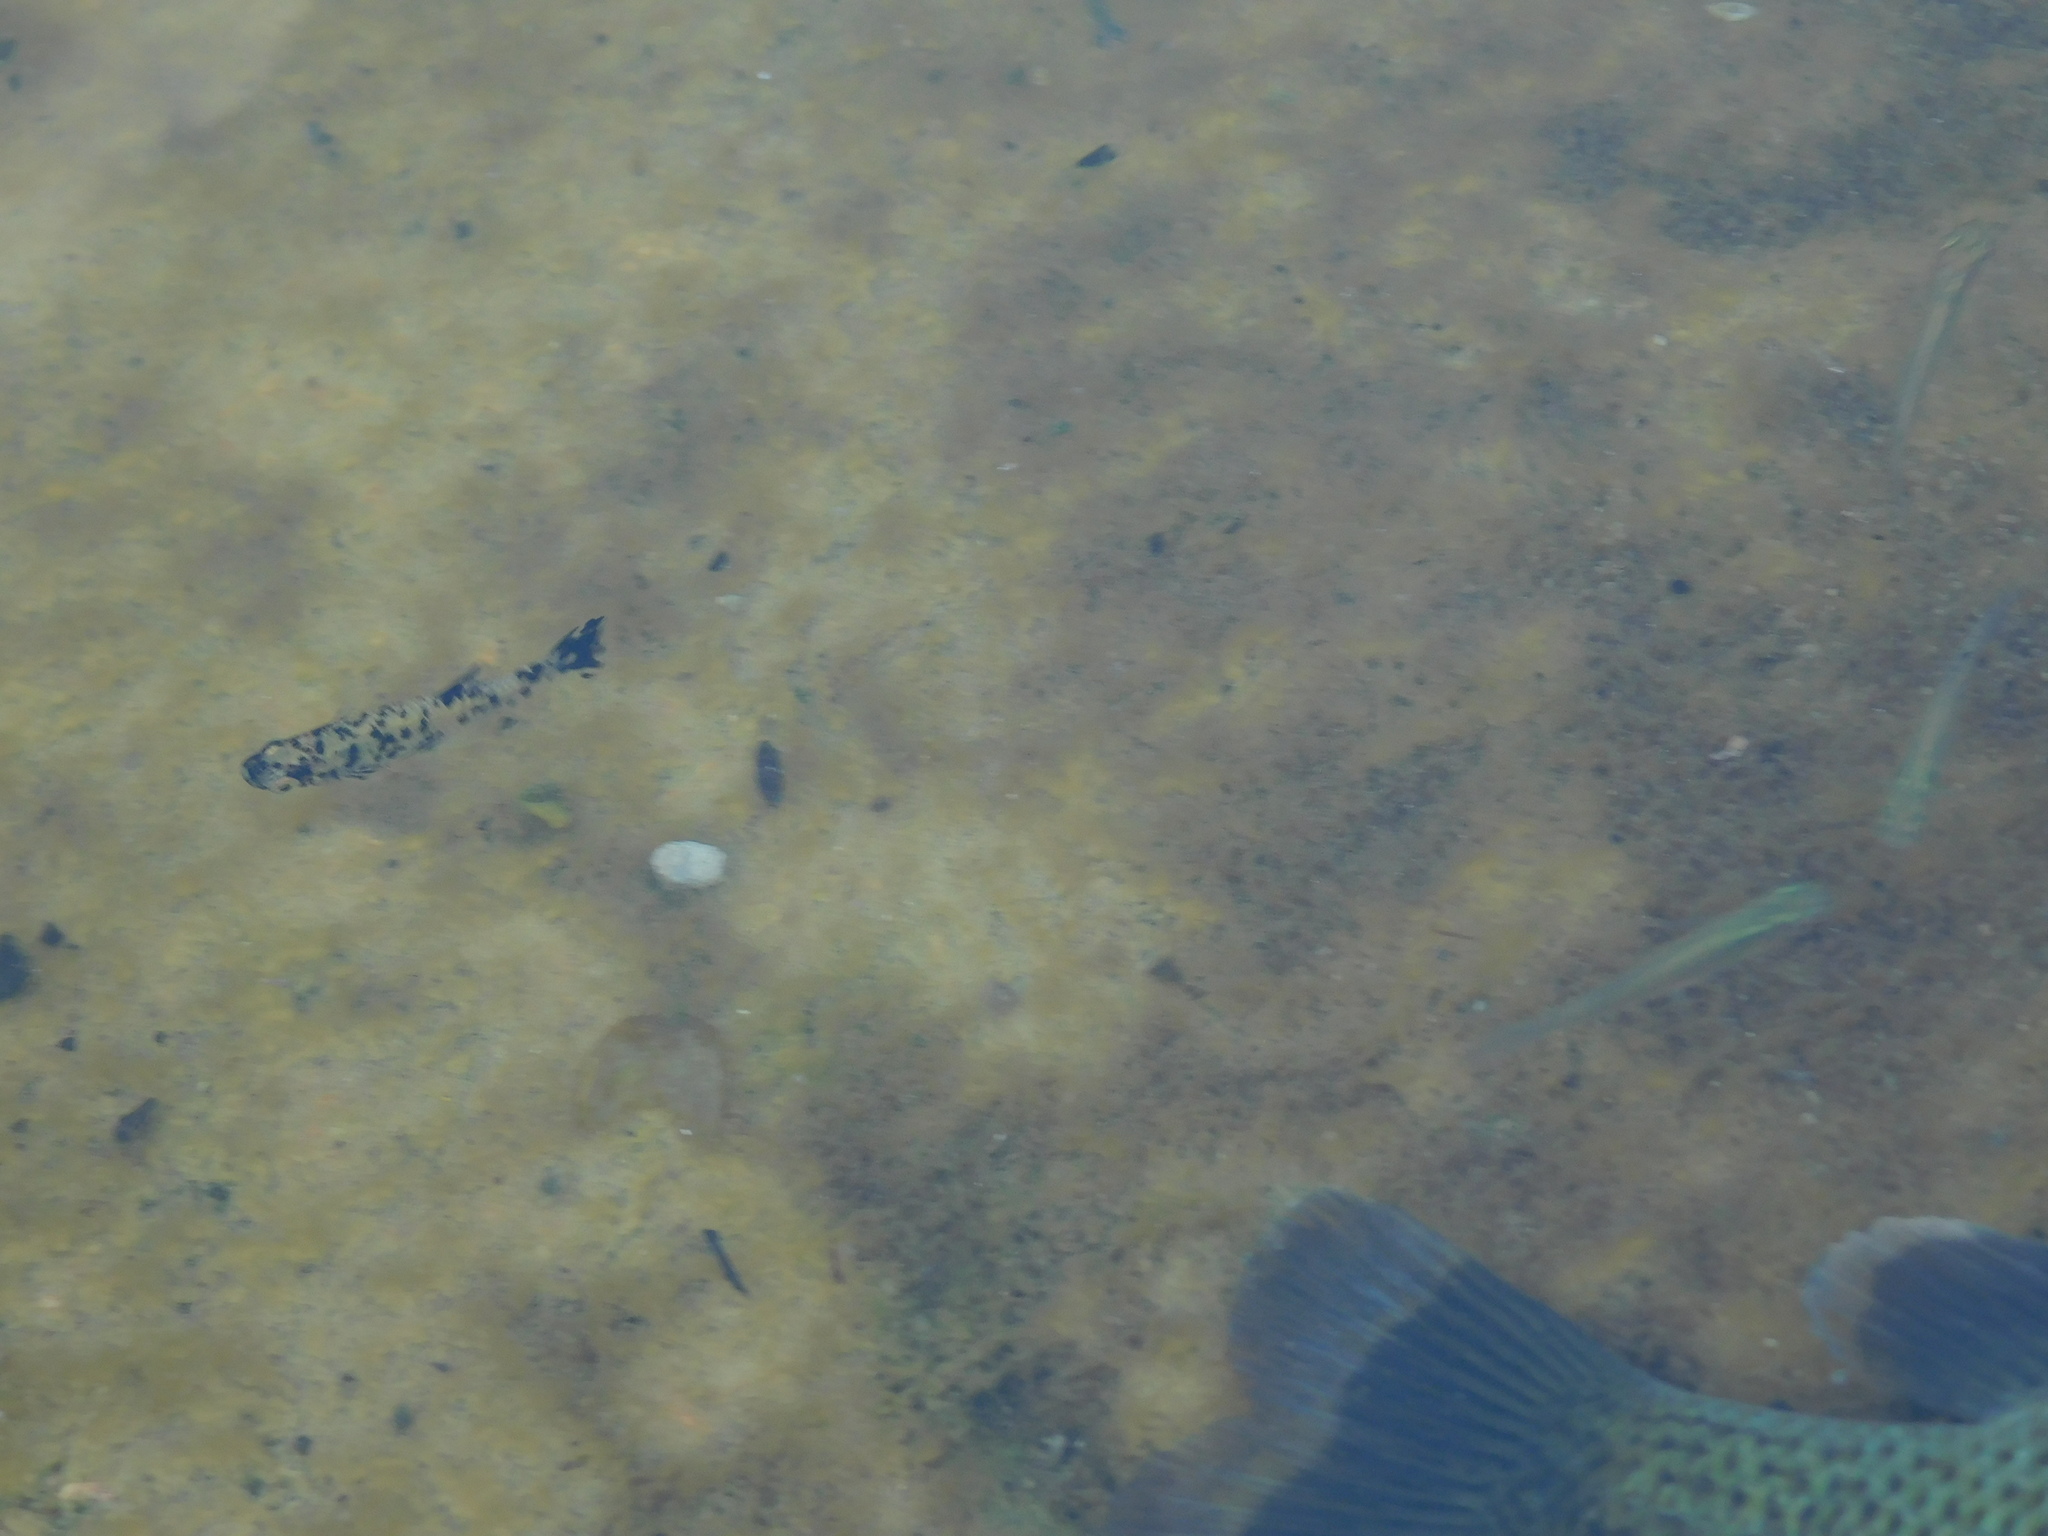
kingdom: Animalia
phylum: Chordata
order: Cyprinodontiformes
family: Poeciliidae
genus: Gambusia
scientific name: Gambusia holbrooki
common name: Eastern mosquitofish
